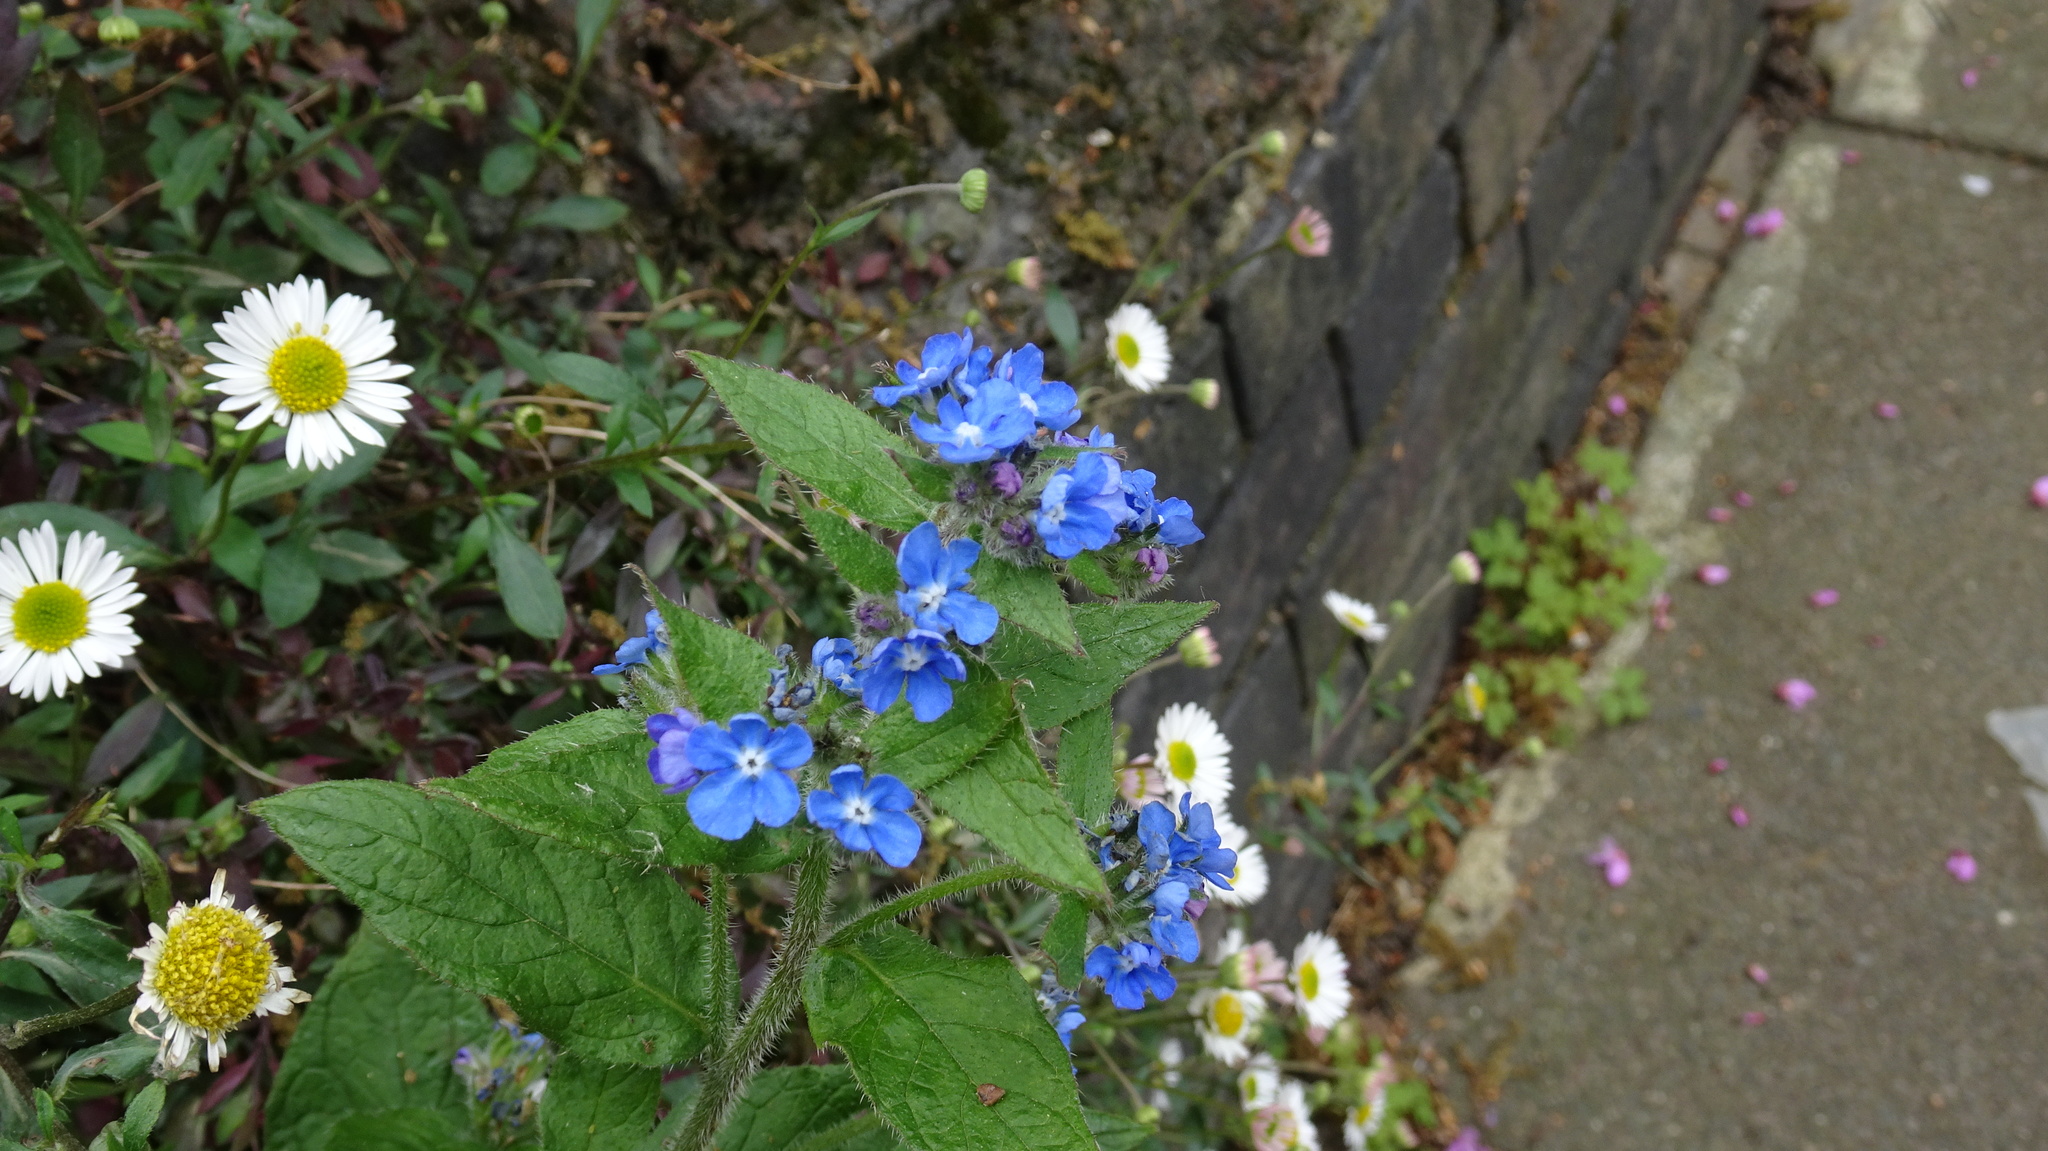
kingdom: Plantae
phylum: Tracheophyta
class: Magnoliopsida
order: Boraginales
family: Boraginaceae
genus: Pentaglottis
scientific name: Pentaglottis sempervirens
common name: Green alkanet
